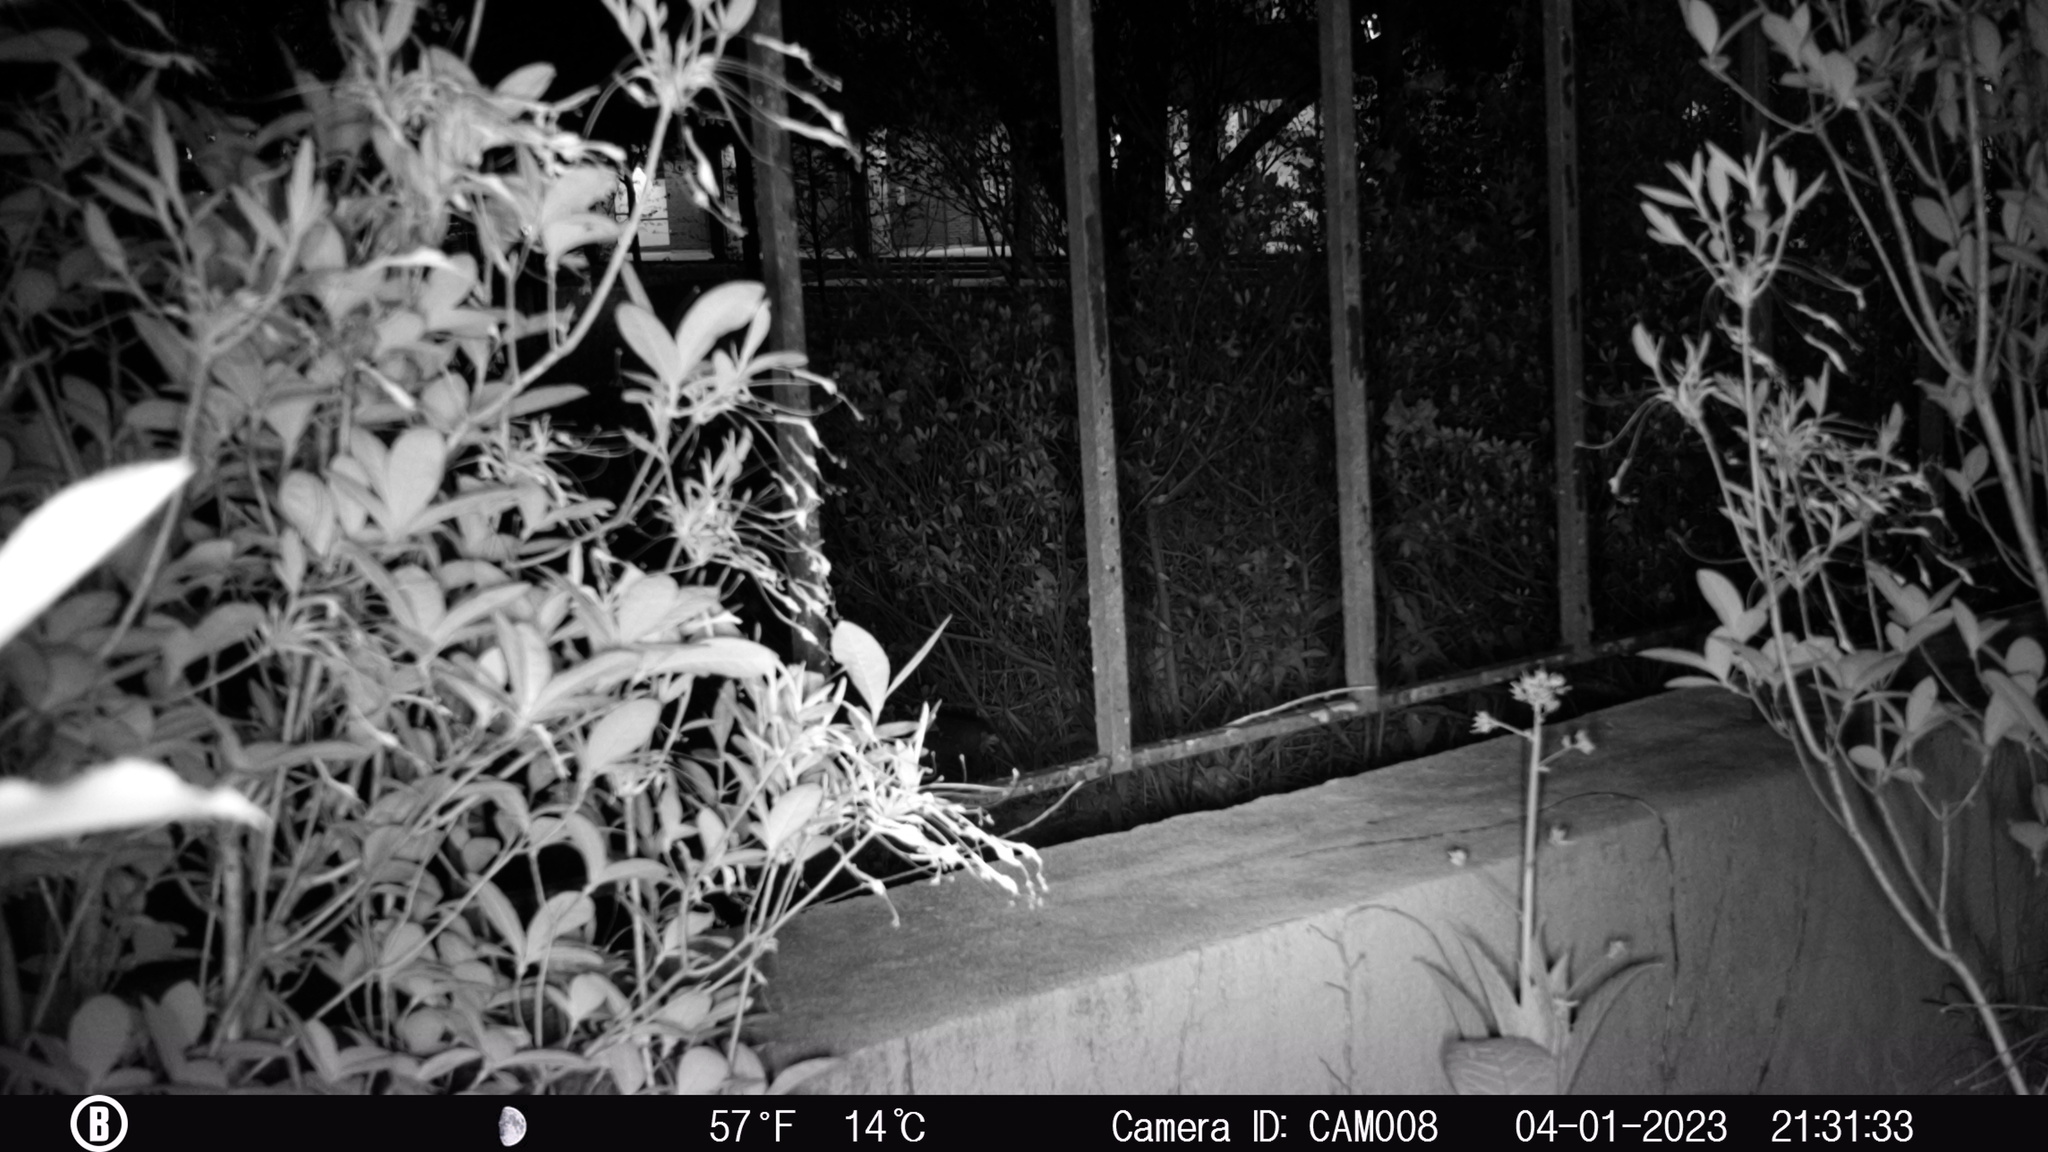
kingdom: Animalia
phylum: Chordata
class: Mammalia
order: Carnivora
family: Canidae
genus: Urocyon
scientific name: Urocyon cinereoargenteus
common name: Gray fox
